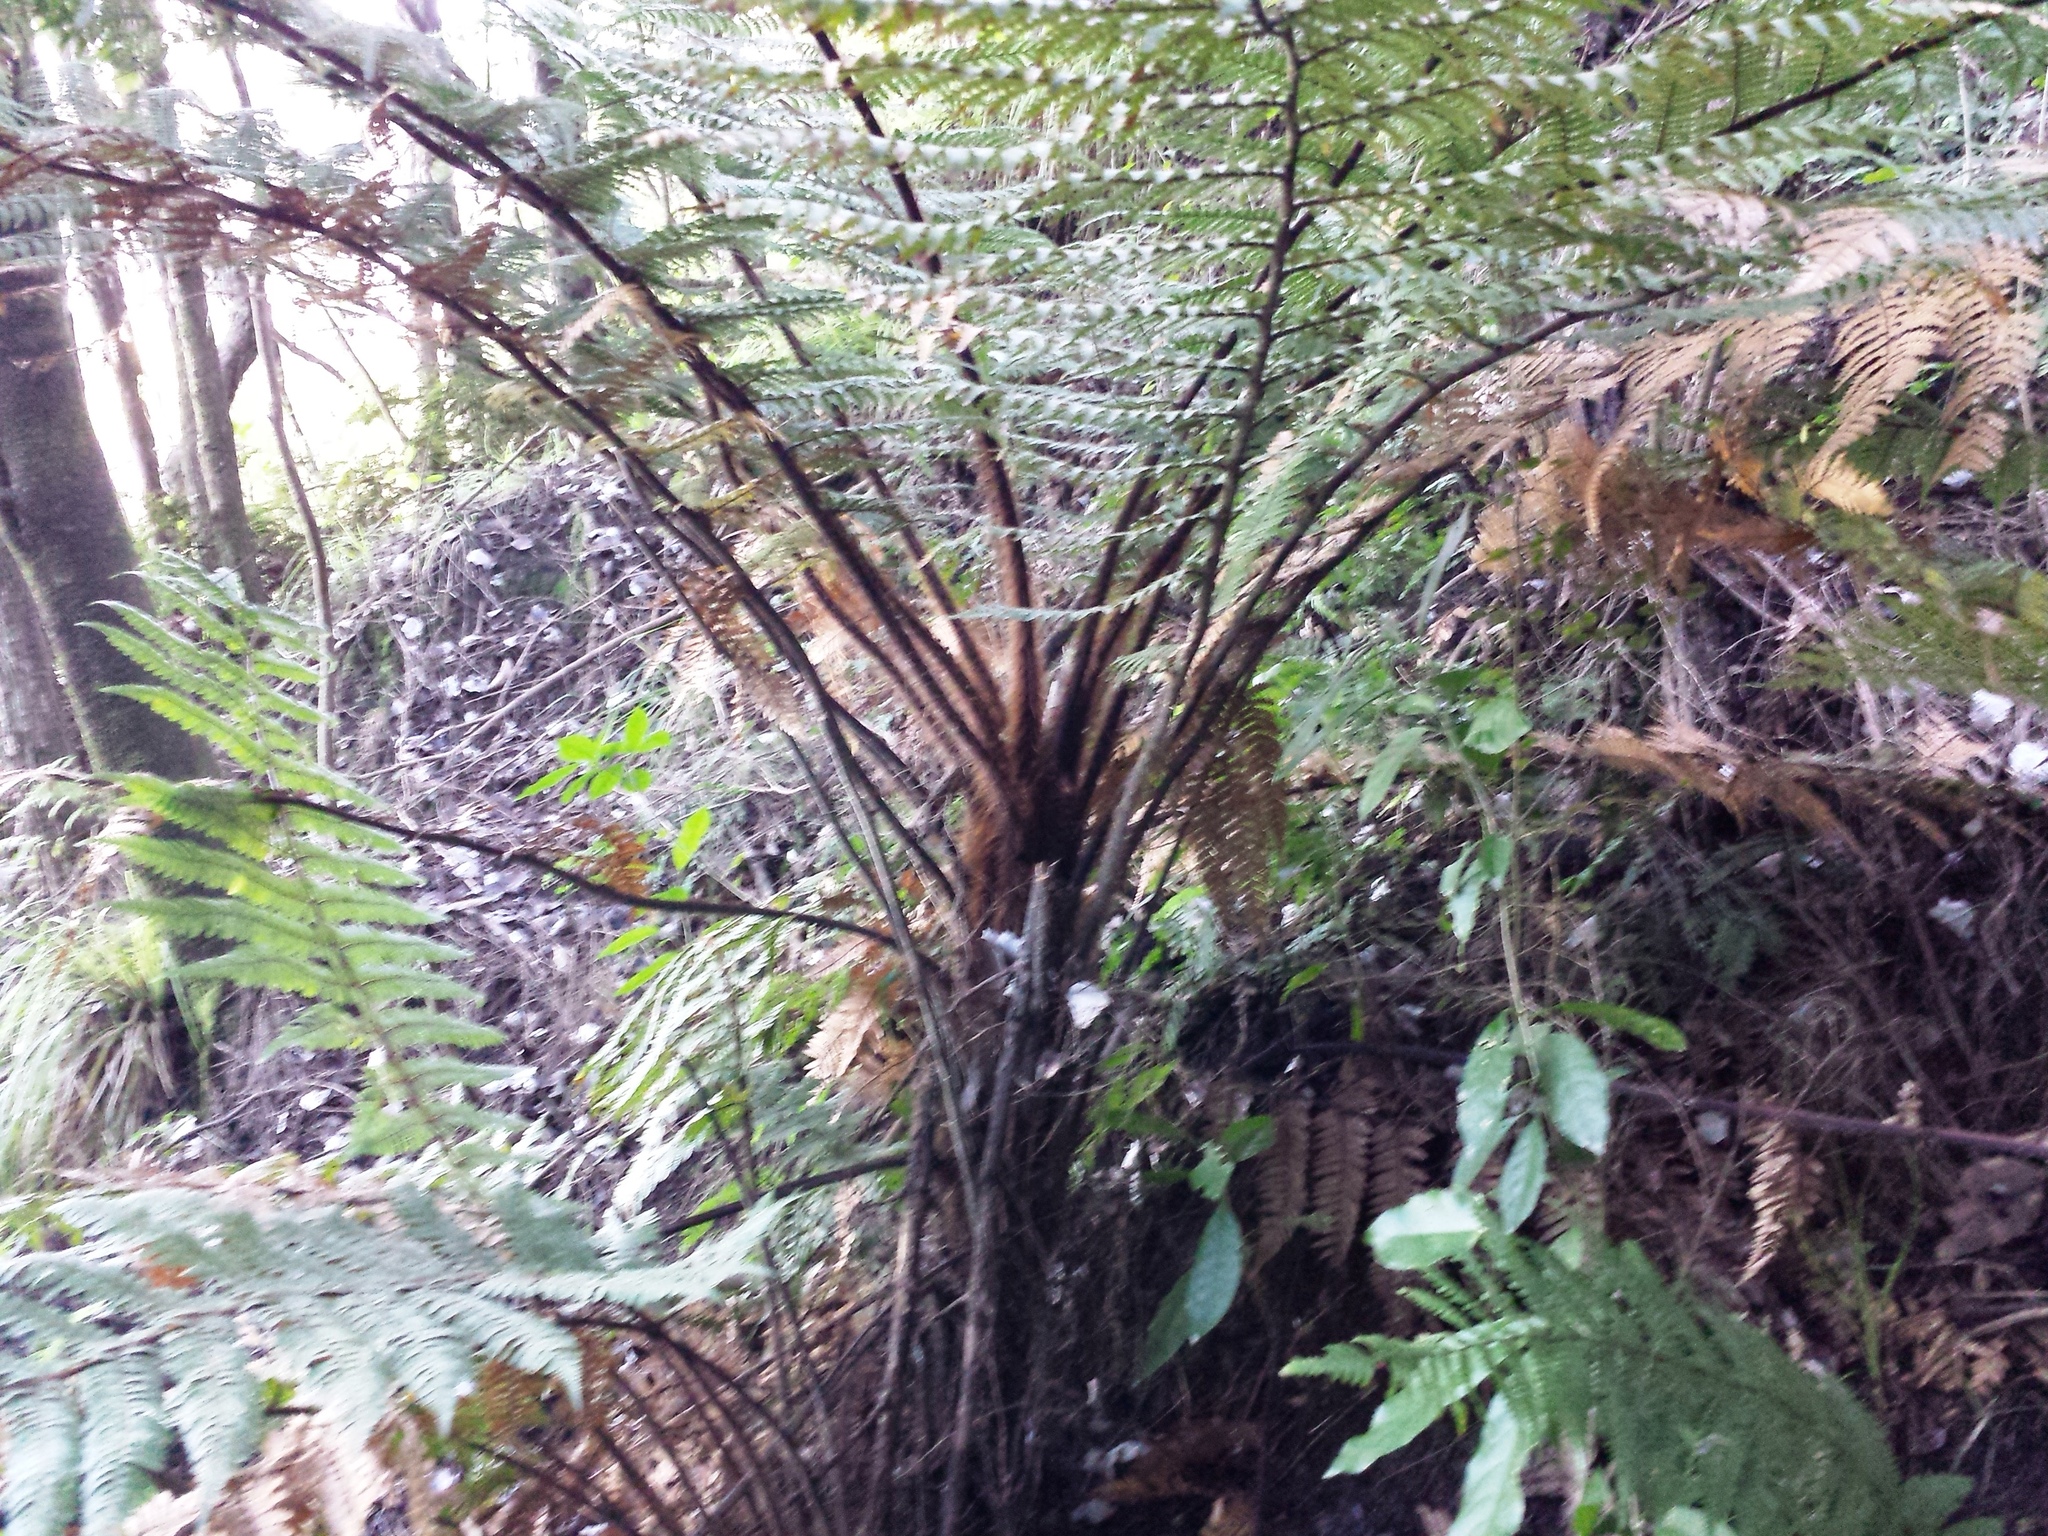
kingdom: Plantae
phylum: Tracheophyta
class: Polypodiopsida
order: Cyatheales
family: Dicksoniaceae
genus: Dicksonia
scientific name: Dicksonia squarrosa
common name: Hard treefern
